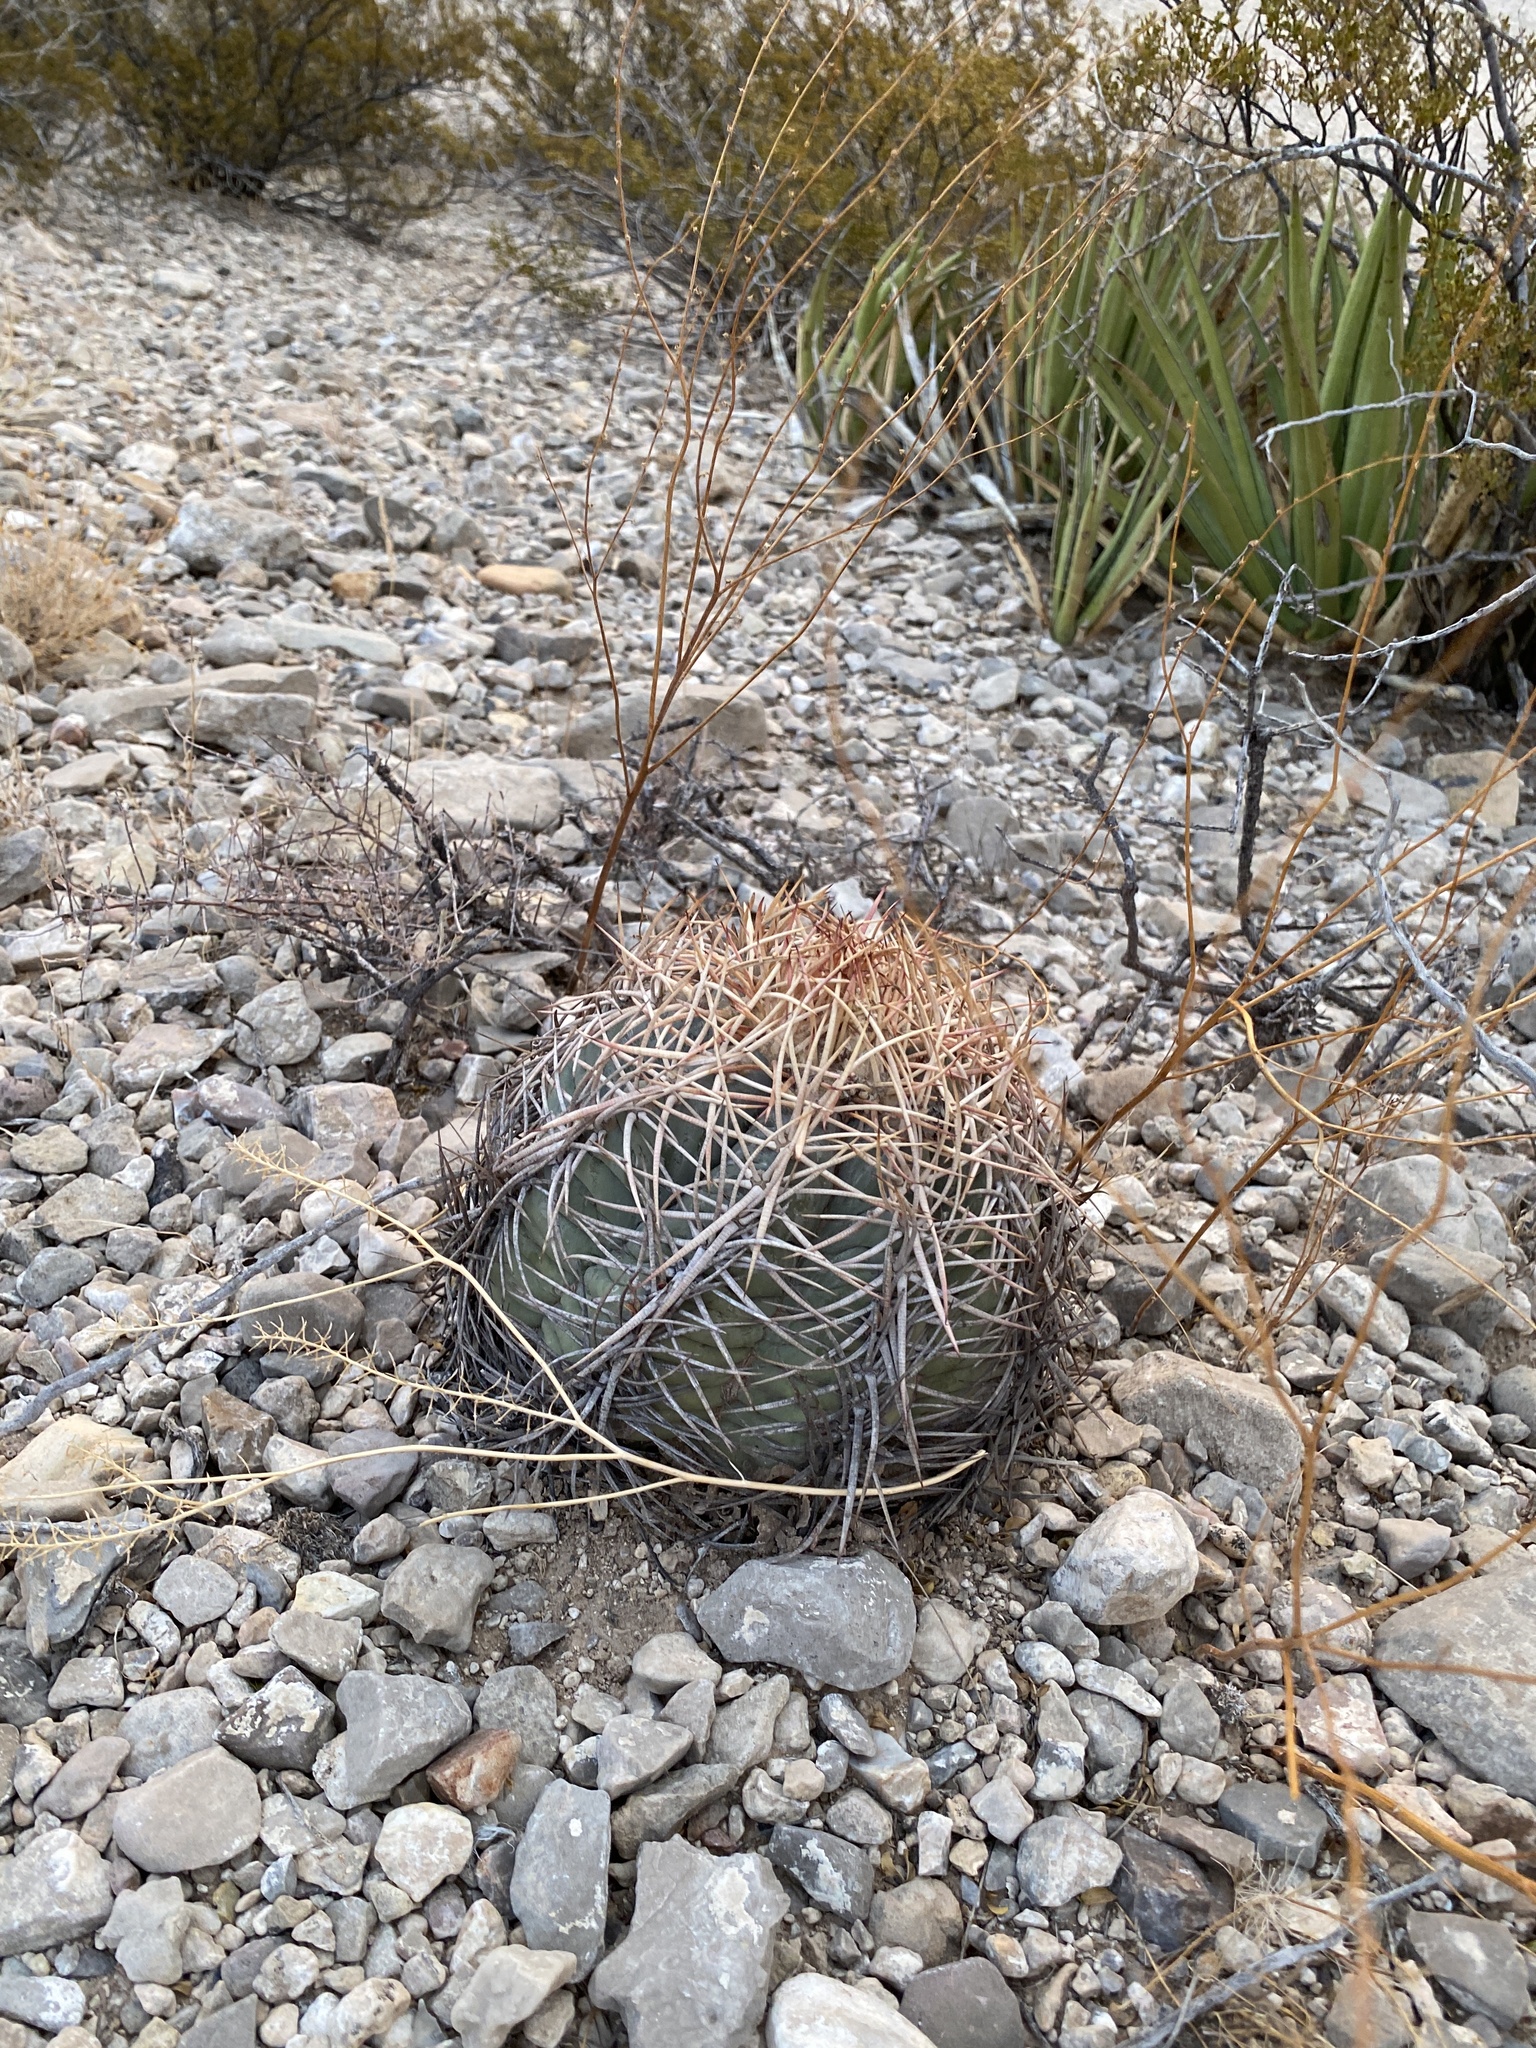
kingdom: Plantae
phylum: Tracheophyta
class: Magnoliopsida
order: Caryophyllales
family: Cactaceae
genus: Echinocactus
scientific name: Echinocactus horizonthalonius
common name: Devilshead
